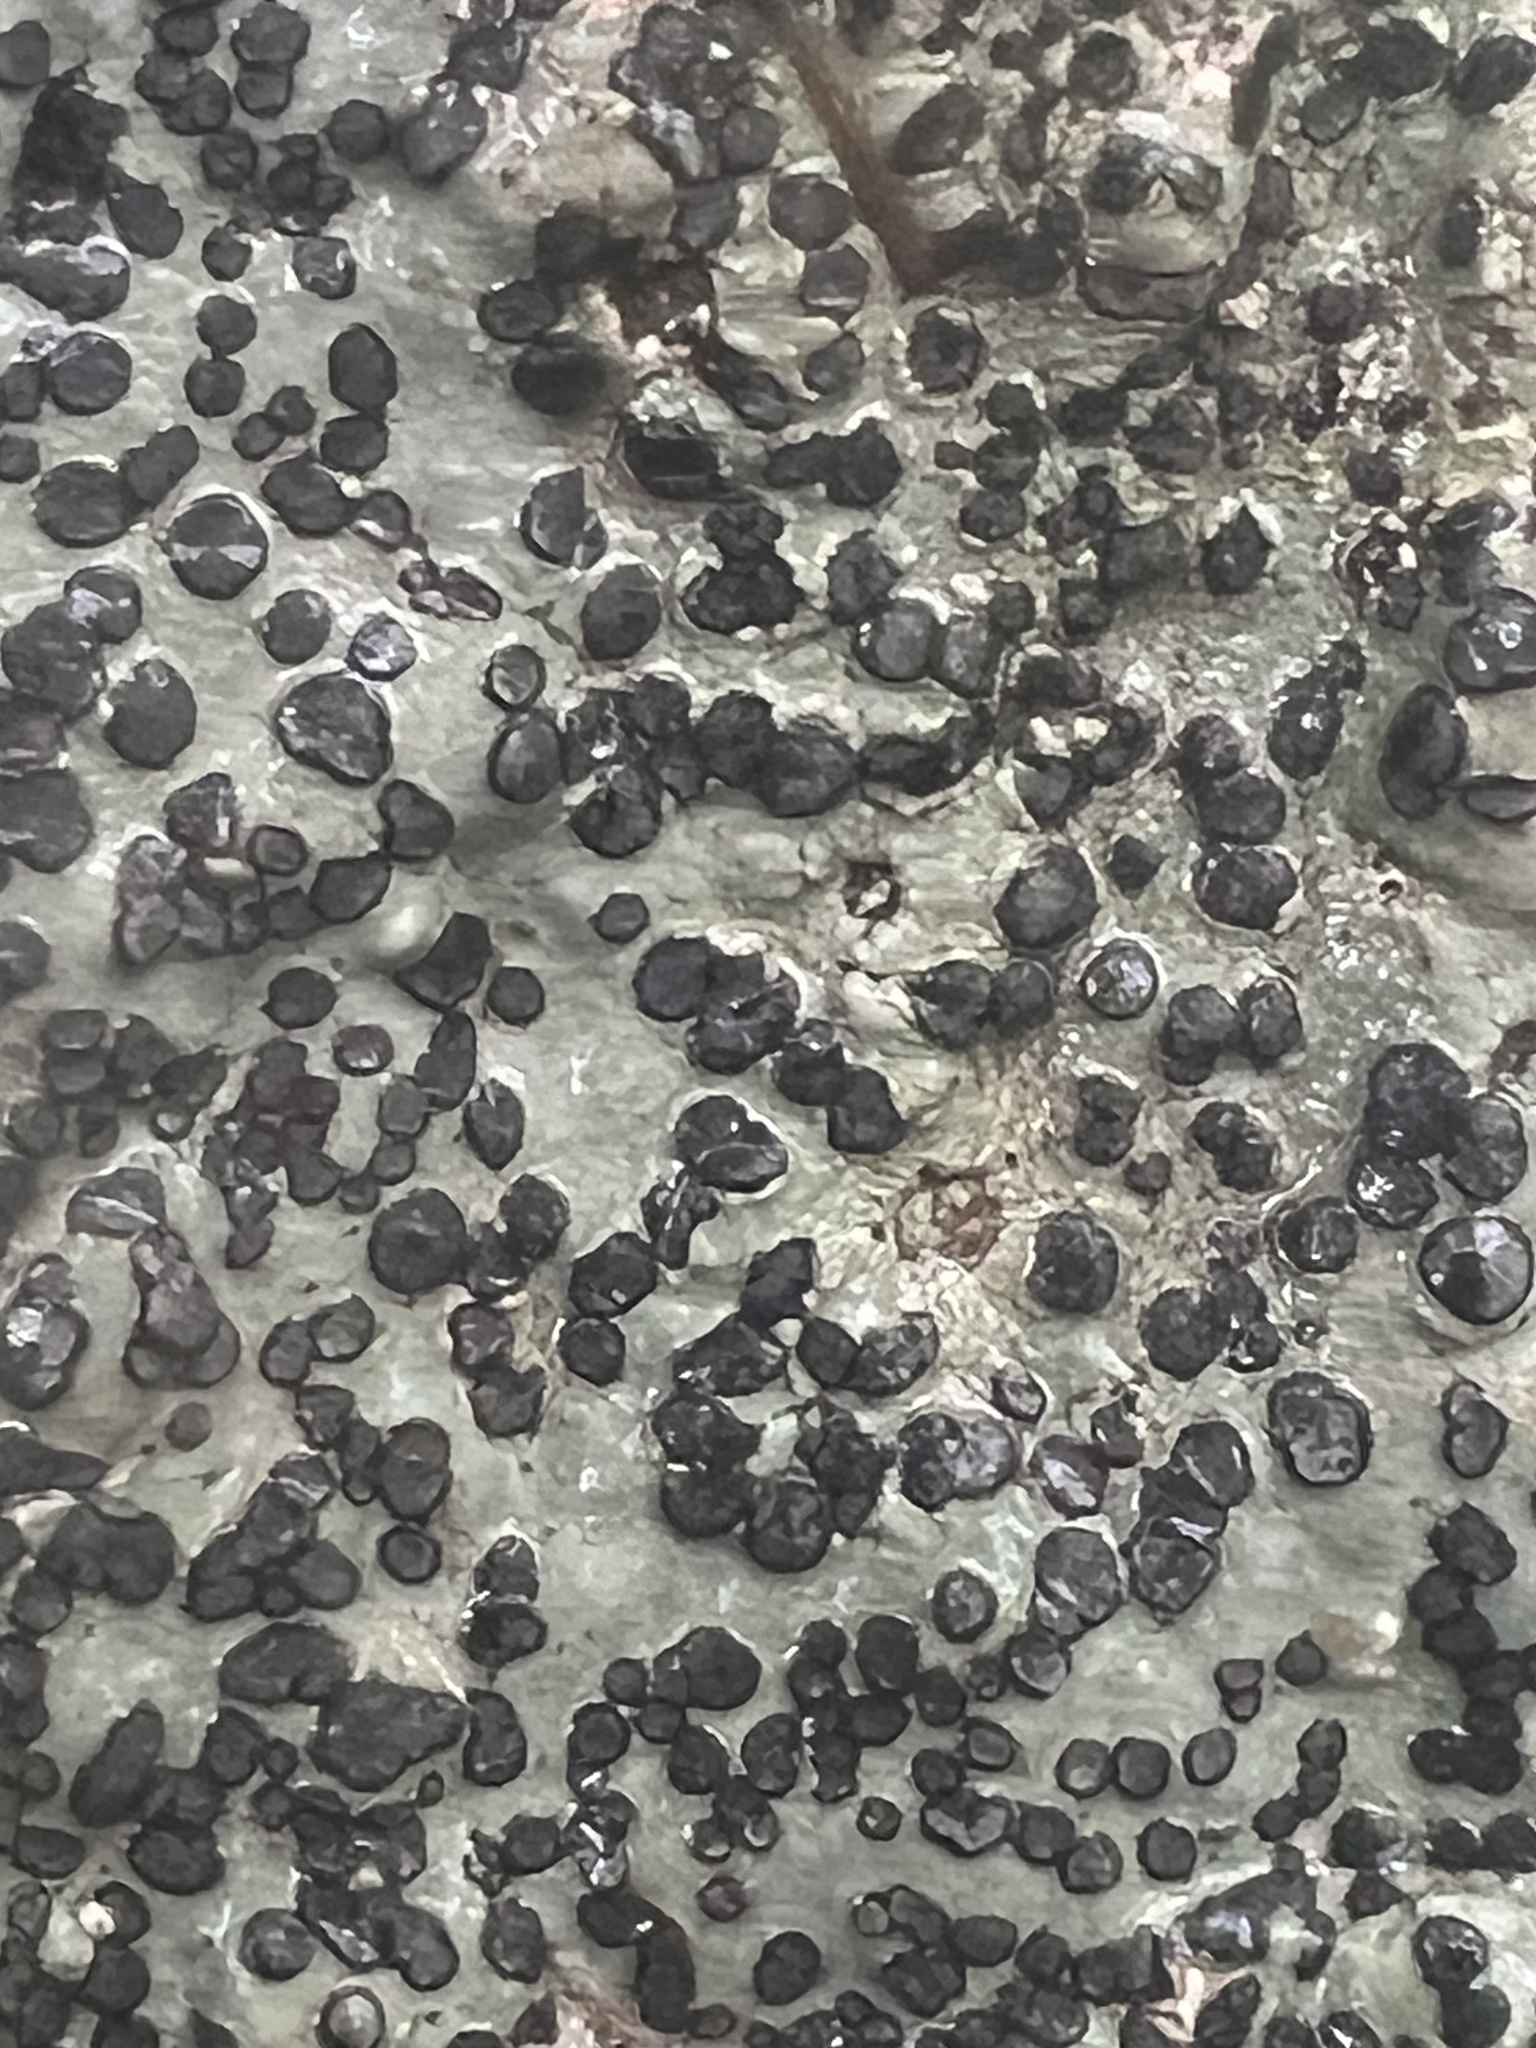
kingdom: Fungi
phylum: Ascomycota
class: Lecanoromycetes
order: Lecideales
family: Lecideaceae
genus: Porpidia
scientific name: Porpidia albocaerulescens
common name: Smokey-eyed boulder lichen
